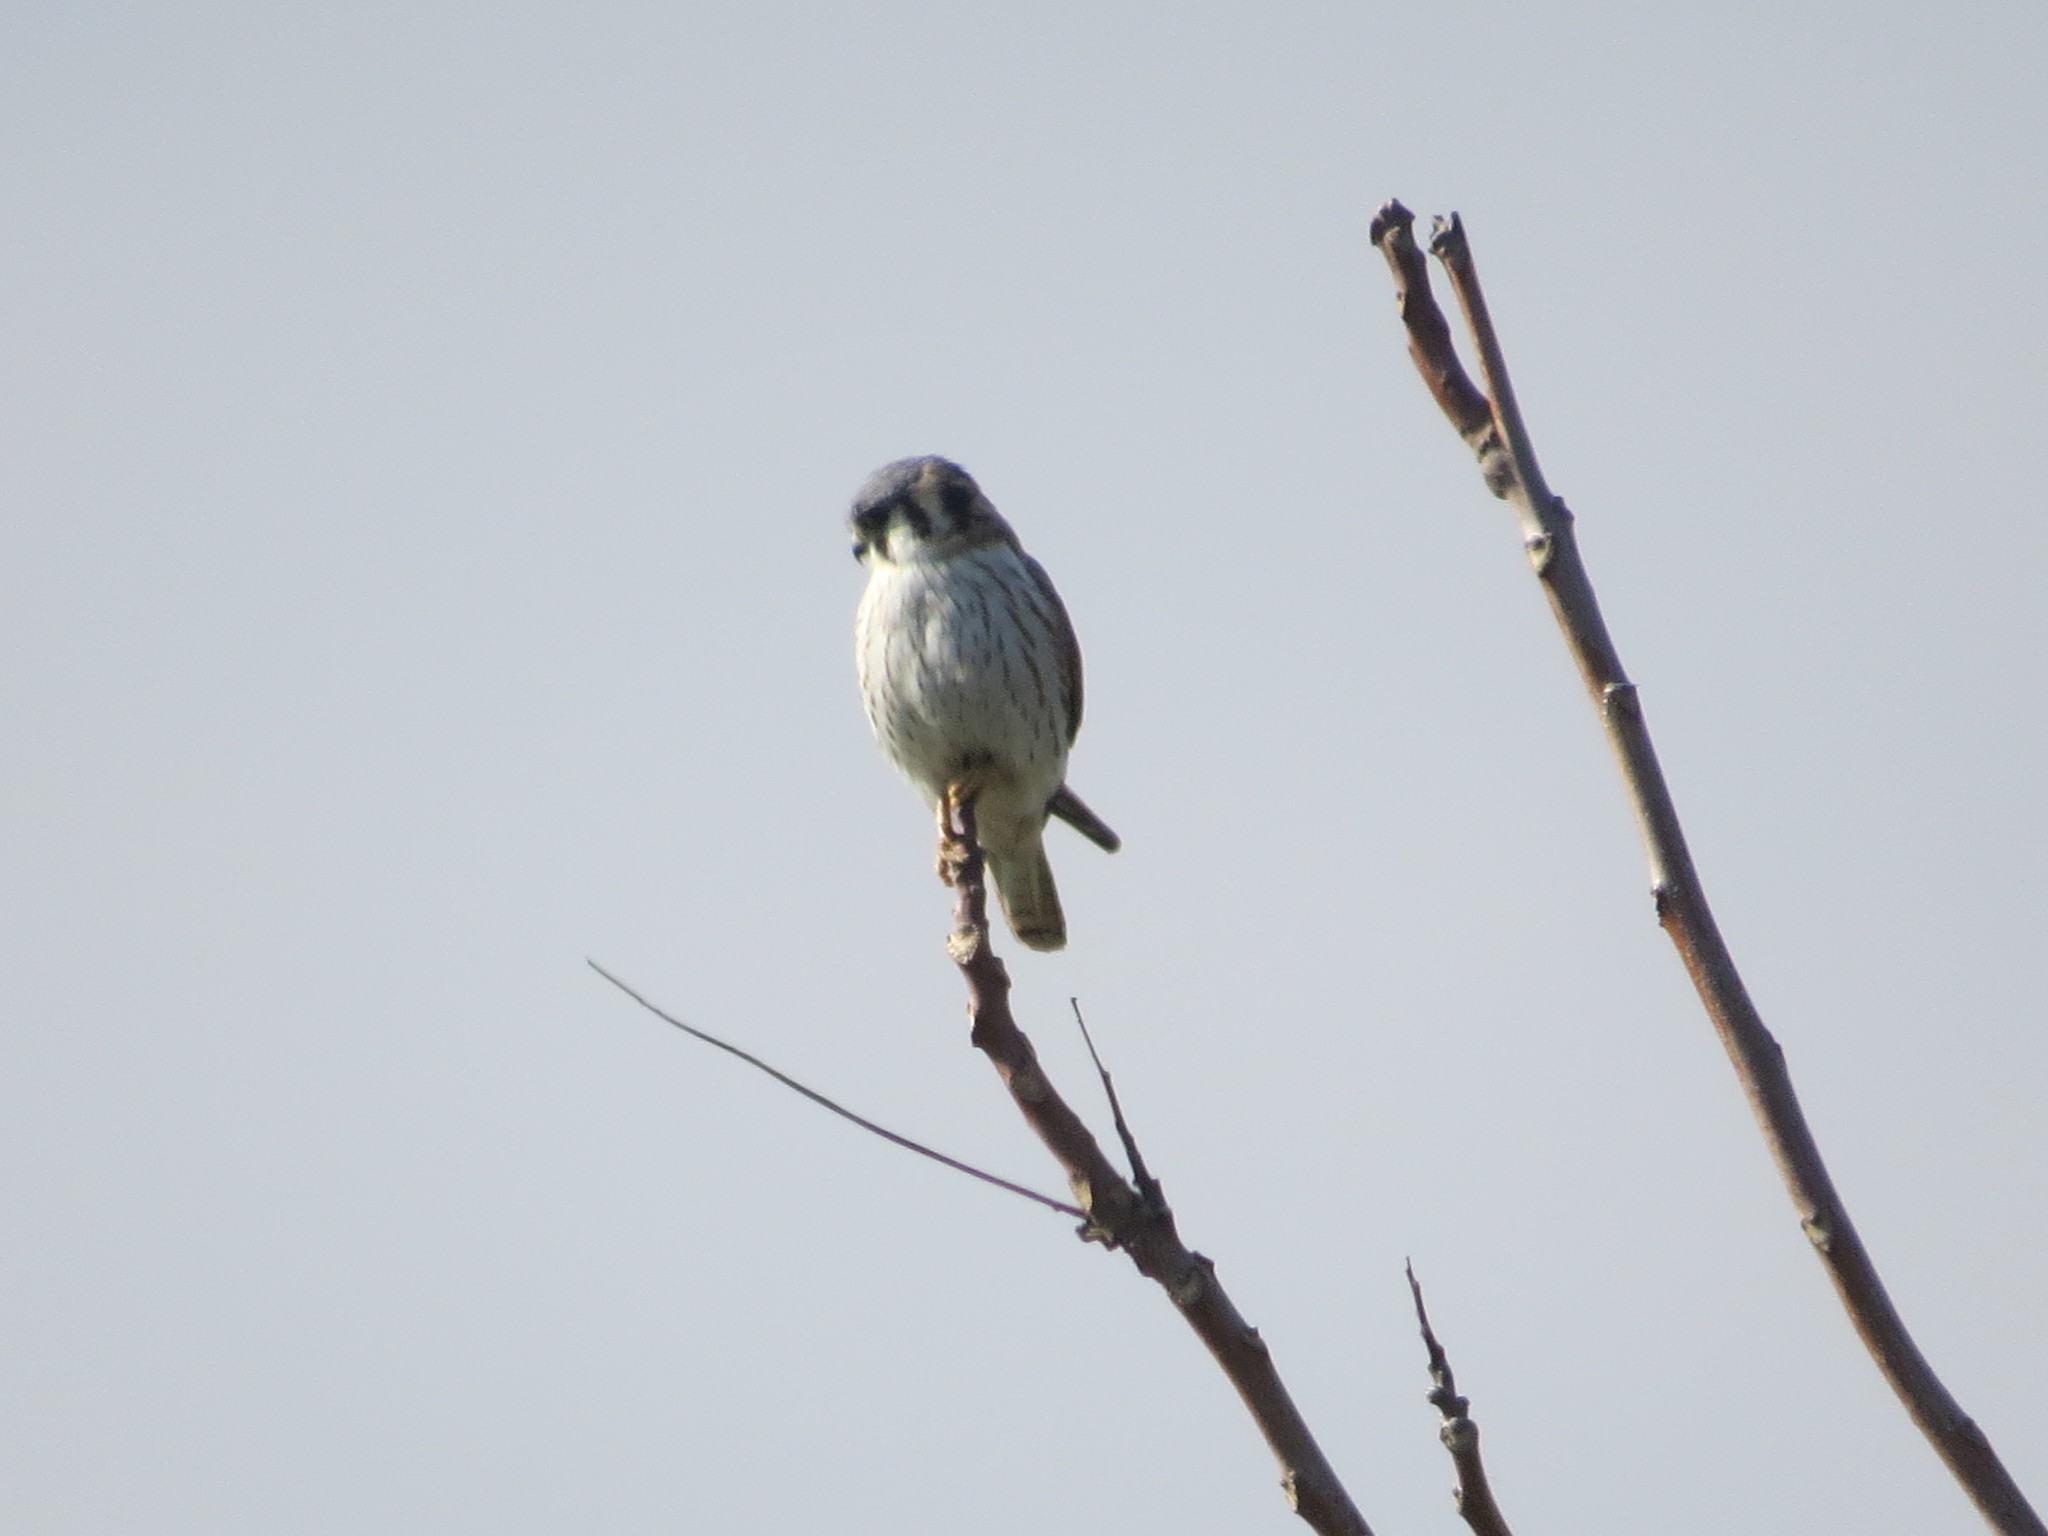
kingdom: Animalia
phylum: Chordata
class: Aves
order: Falconiformes
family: Falconidae
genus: Falco
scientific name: Falco sparverius
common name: American kestrel
